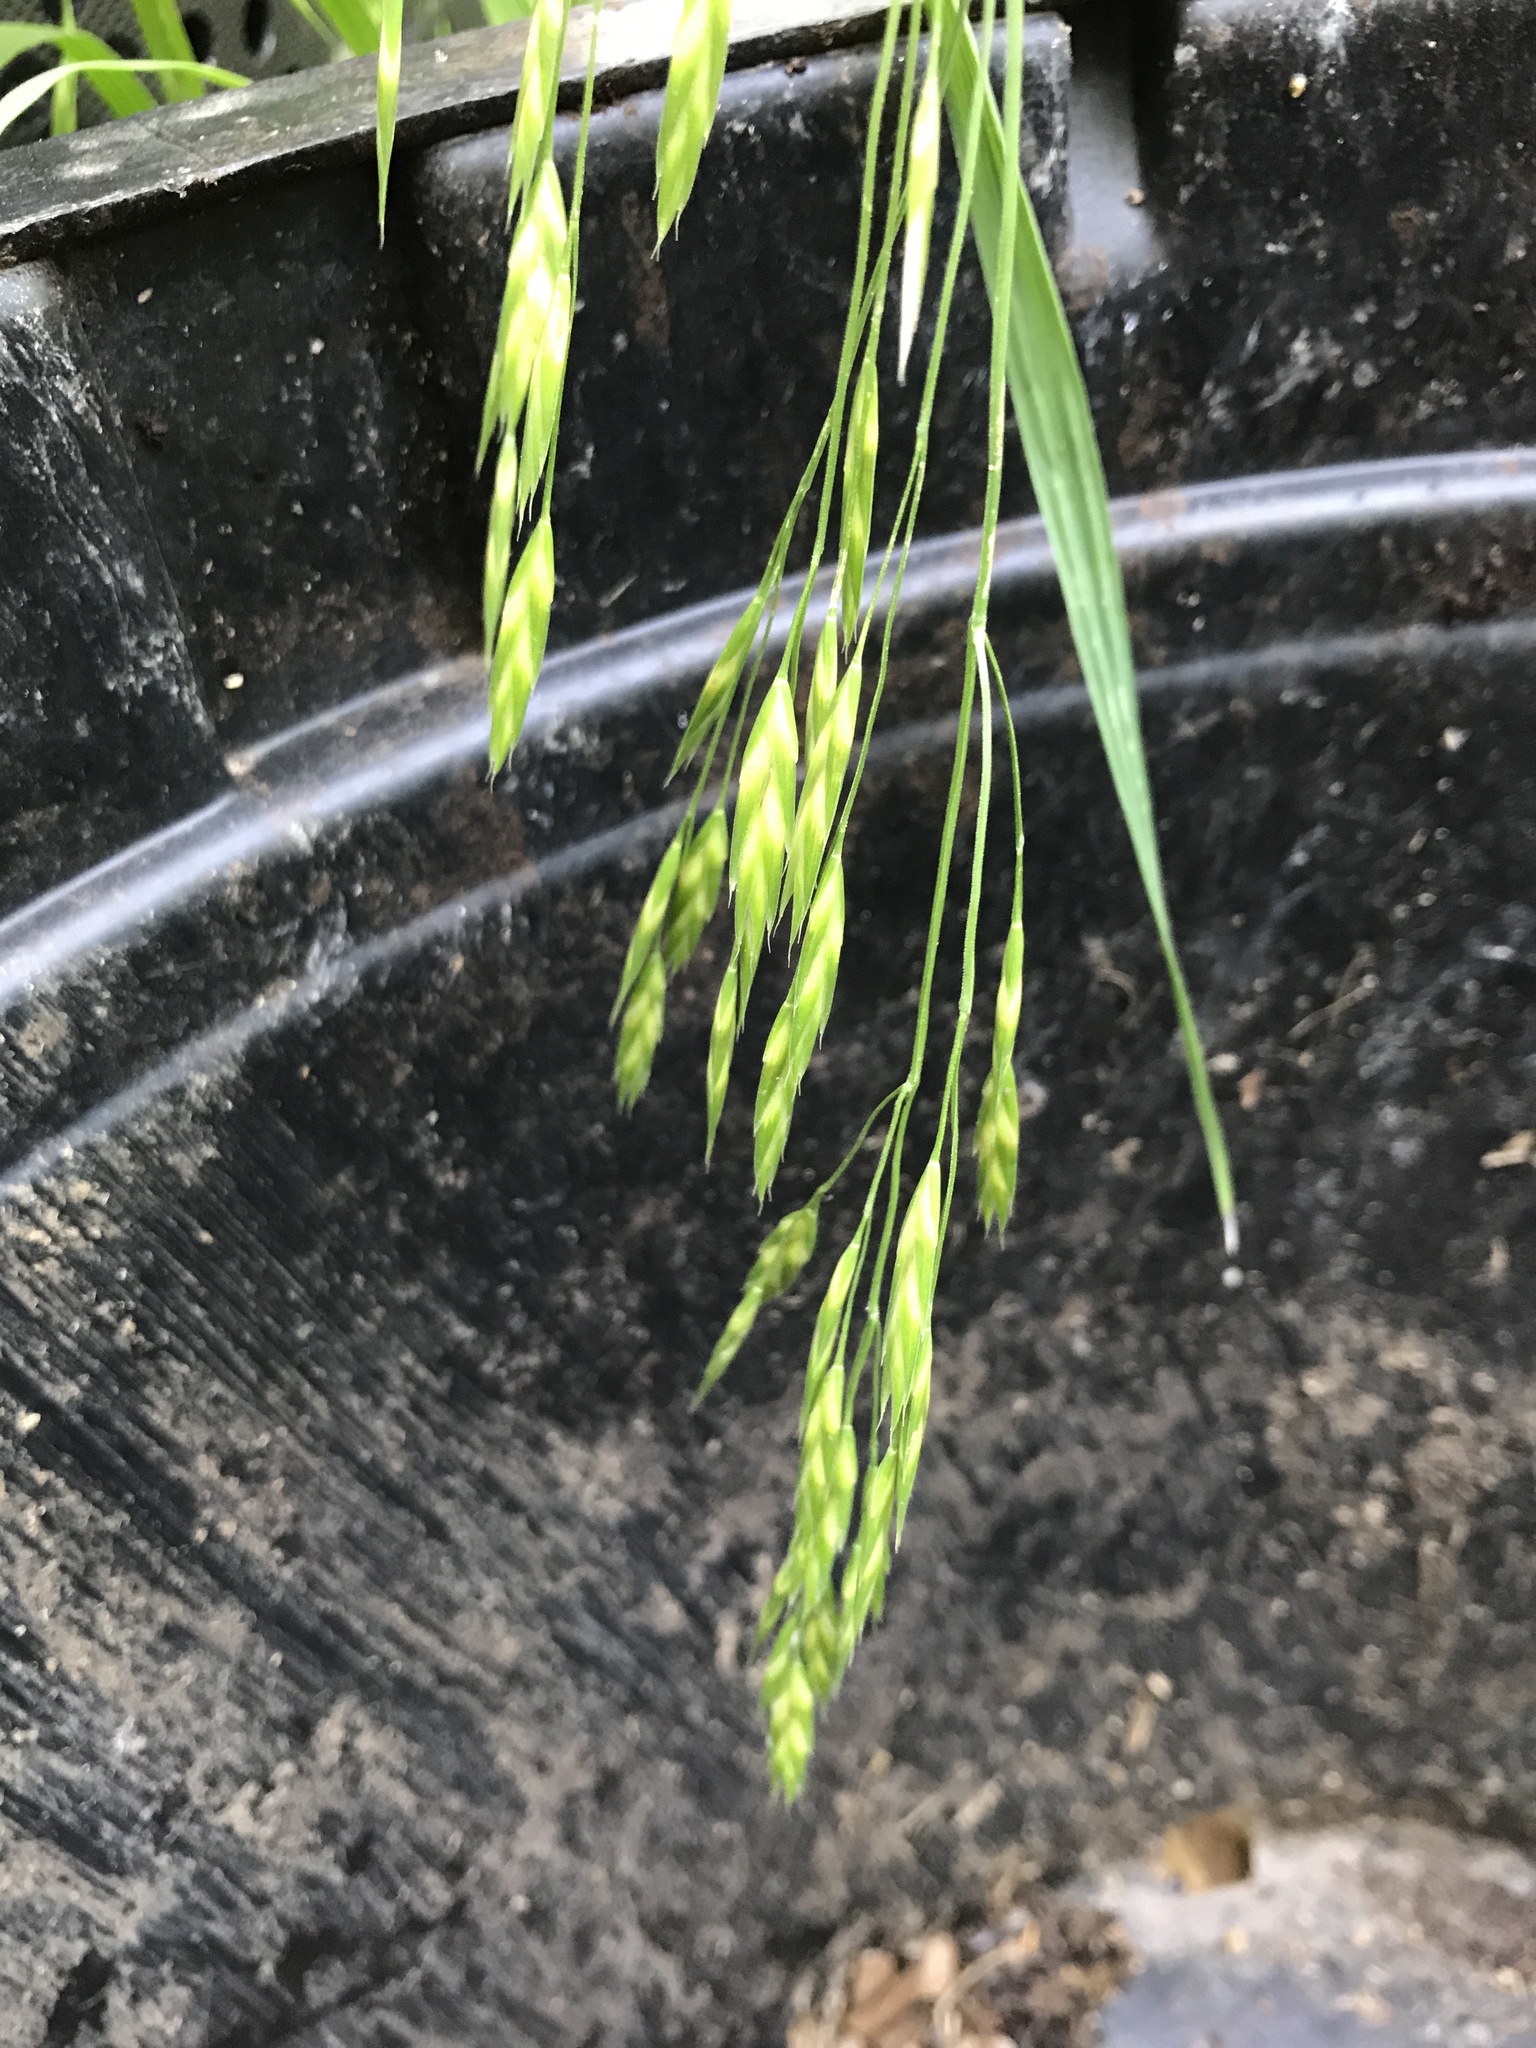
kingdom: Plantae
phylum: Tracheophyta
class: Liliopsida
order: Poales
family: Poaceae
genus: Bromus
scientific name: Bromus catharticus
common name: Rescuegrass
